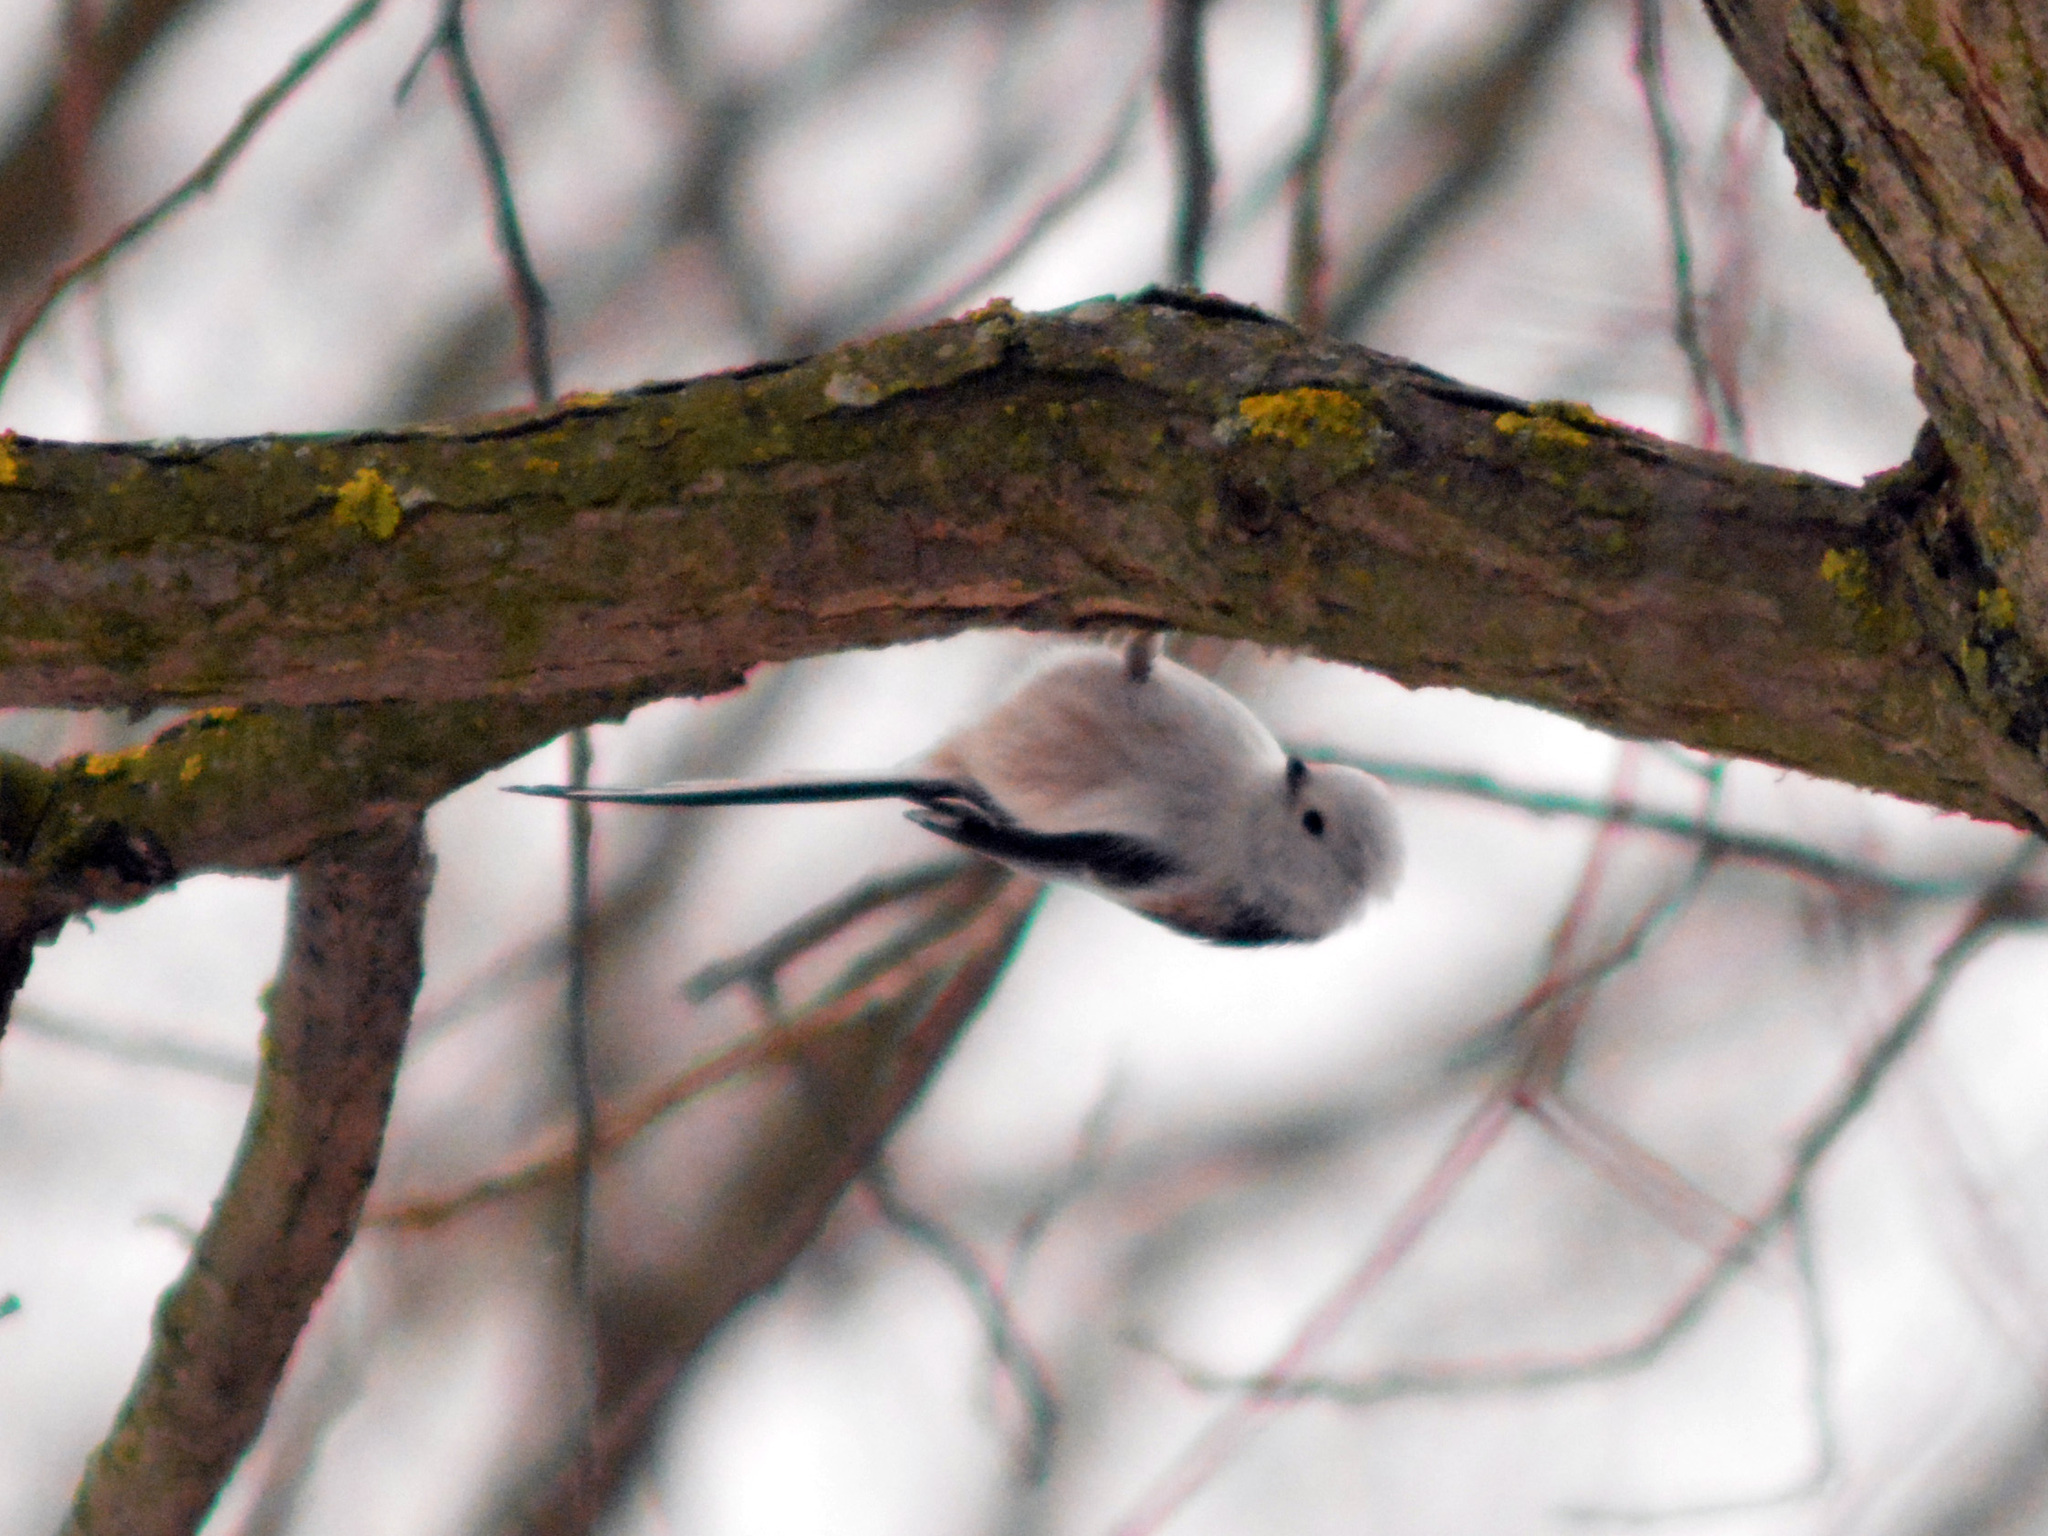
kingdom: Animalia
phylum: Chordata
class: Aves
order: Passeriformes
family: Aegithalidae
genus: Aegithalos
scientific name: Aegithalos caudatus
